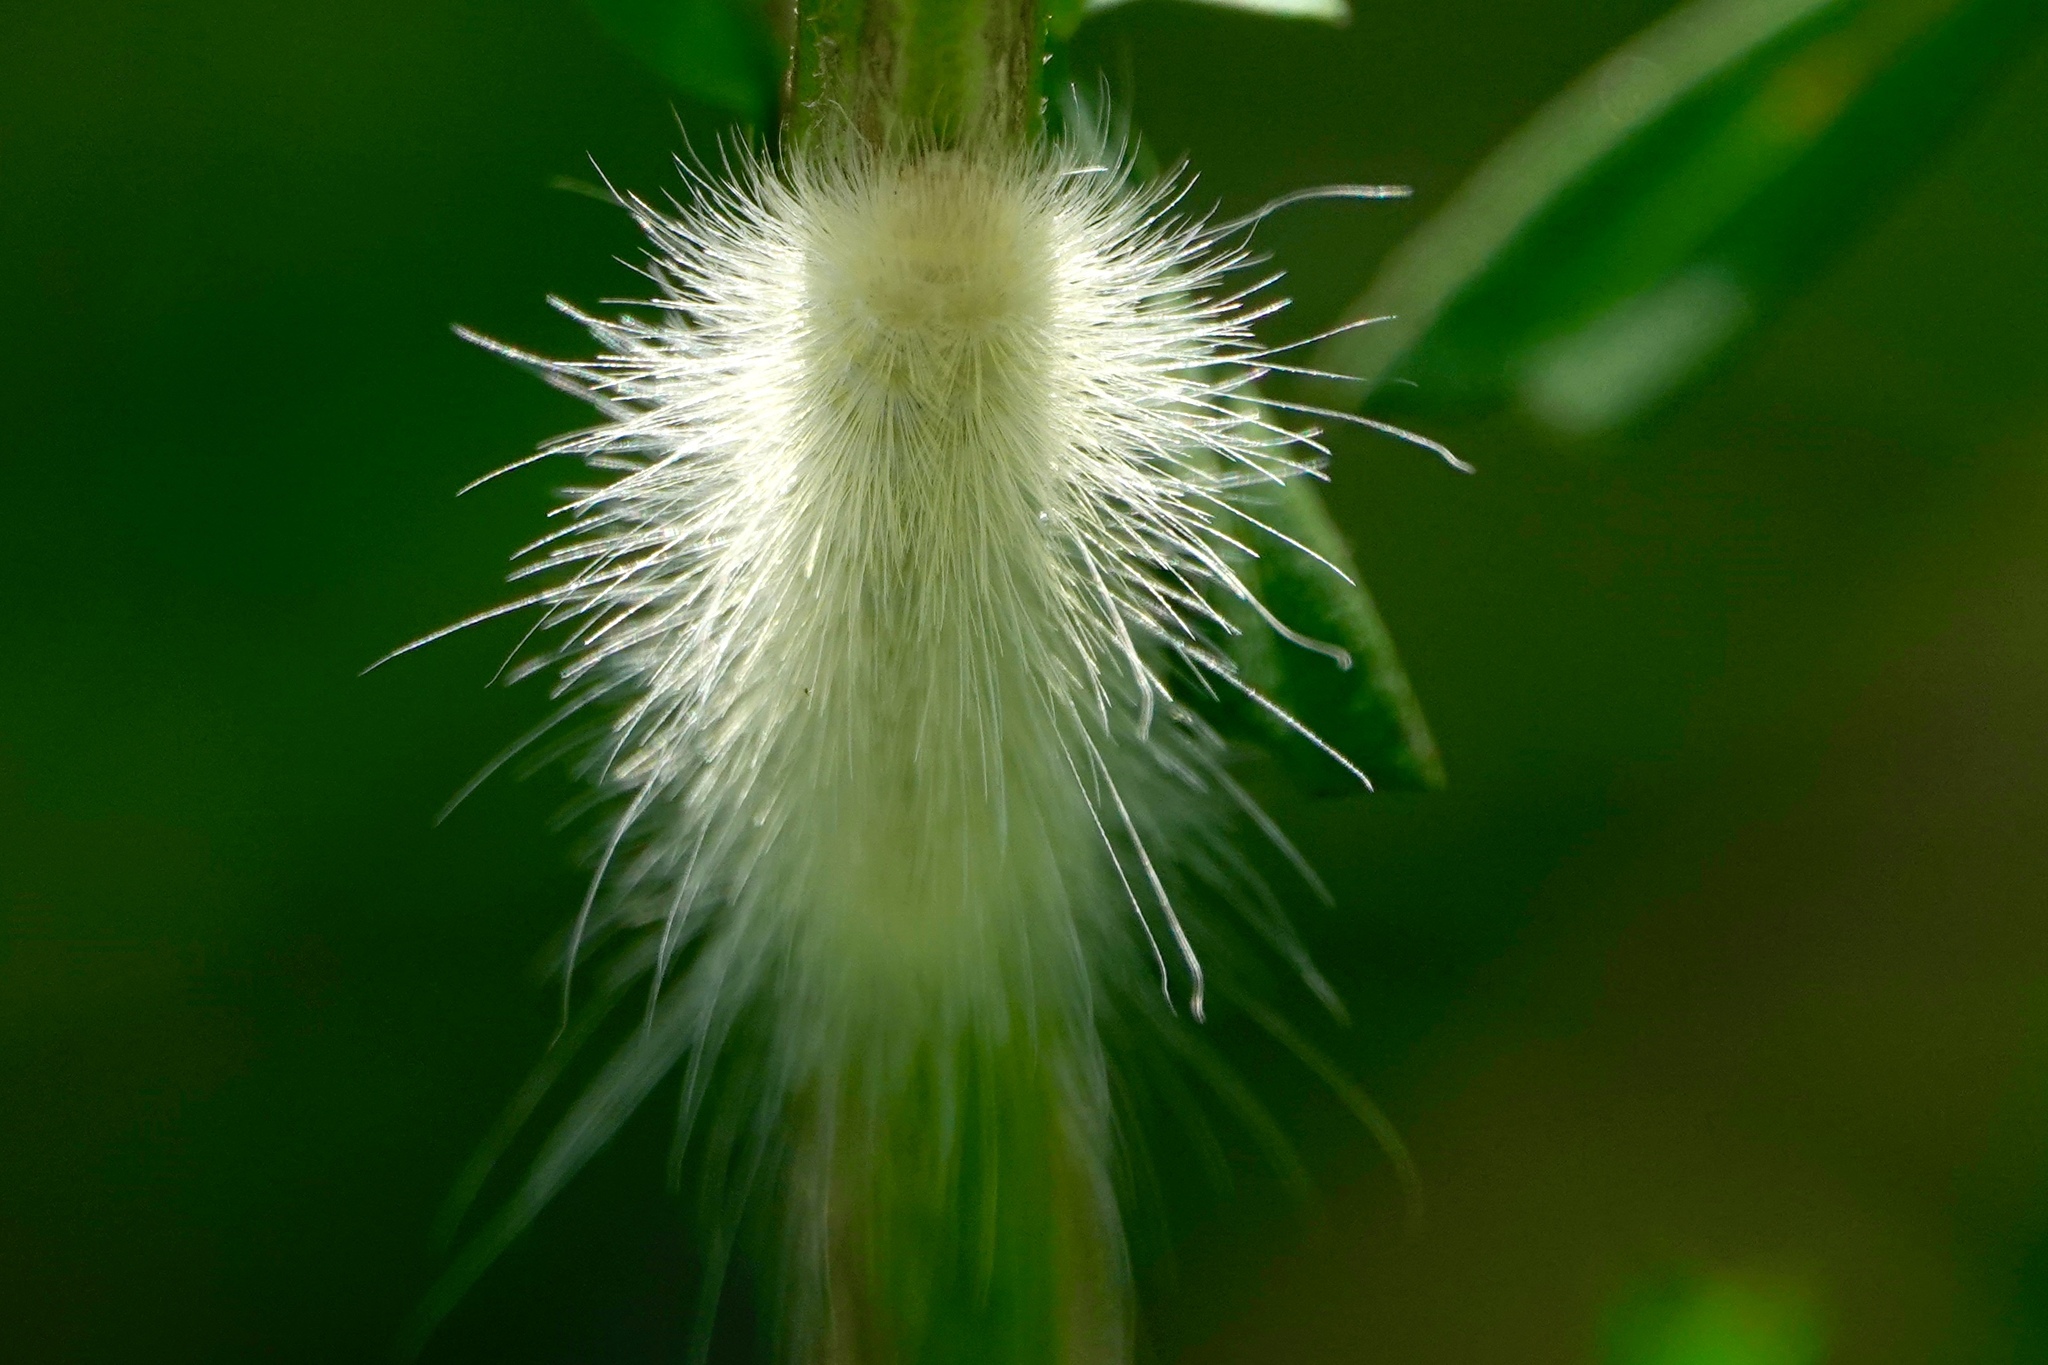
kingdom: Animalia
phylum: Arthropoda
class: Insecta
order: Lepidoptera
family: Erebidae
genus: Spilosoma
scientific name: Spilosoma virginica
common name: Virginia tiger moth
